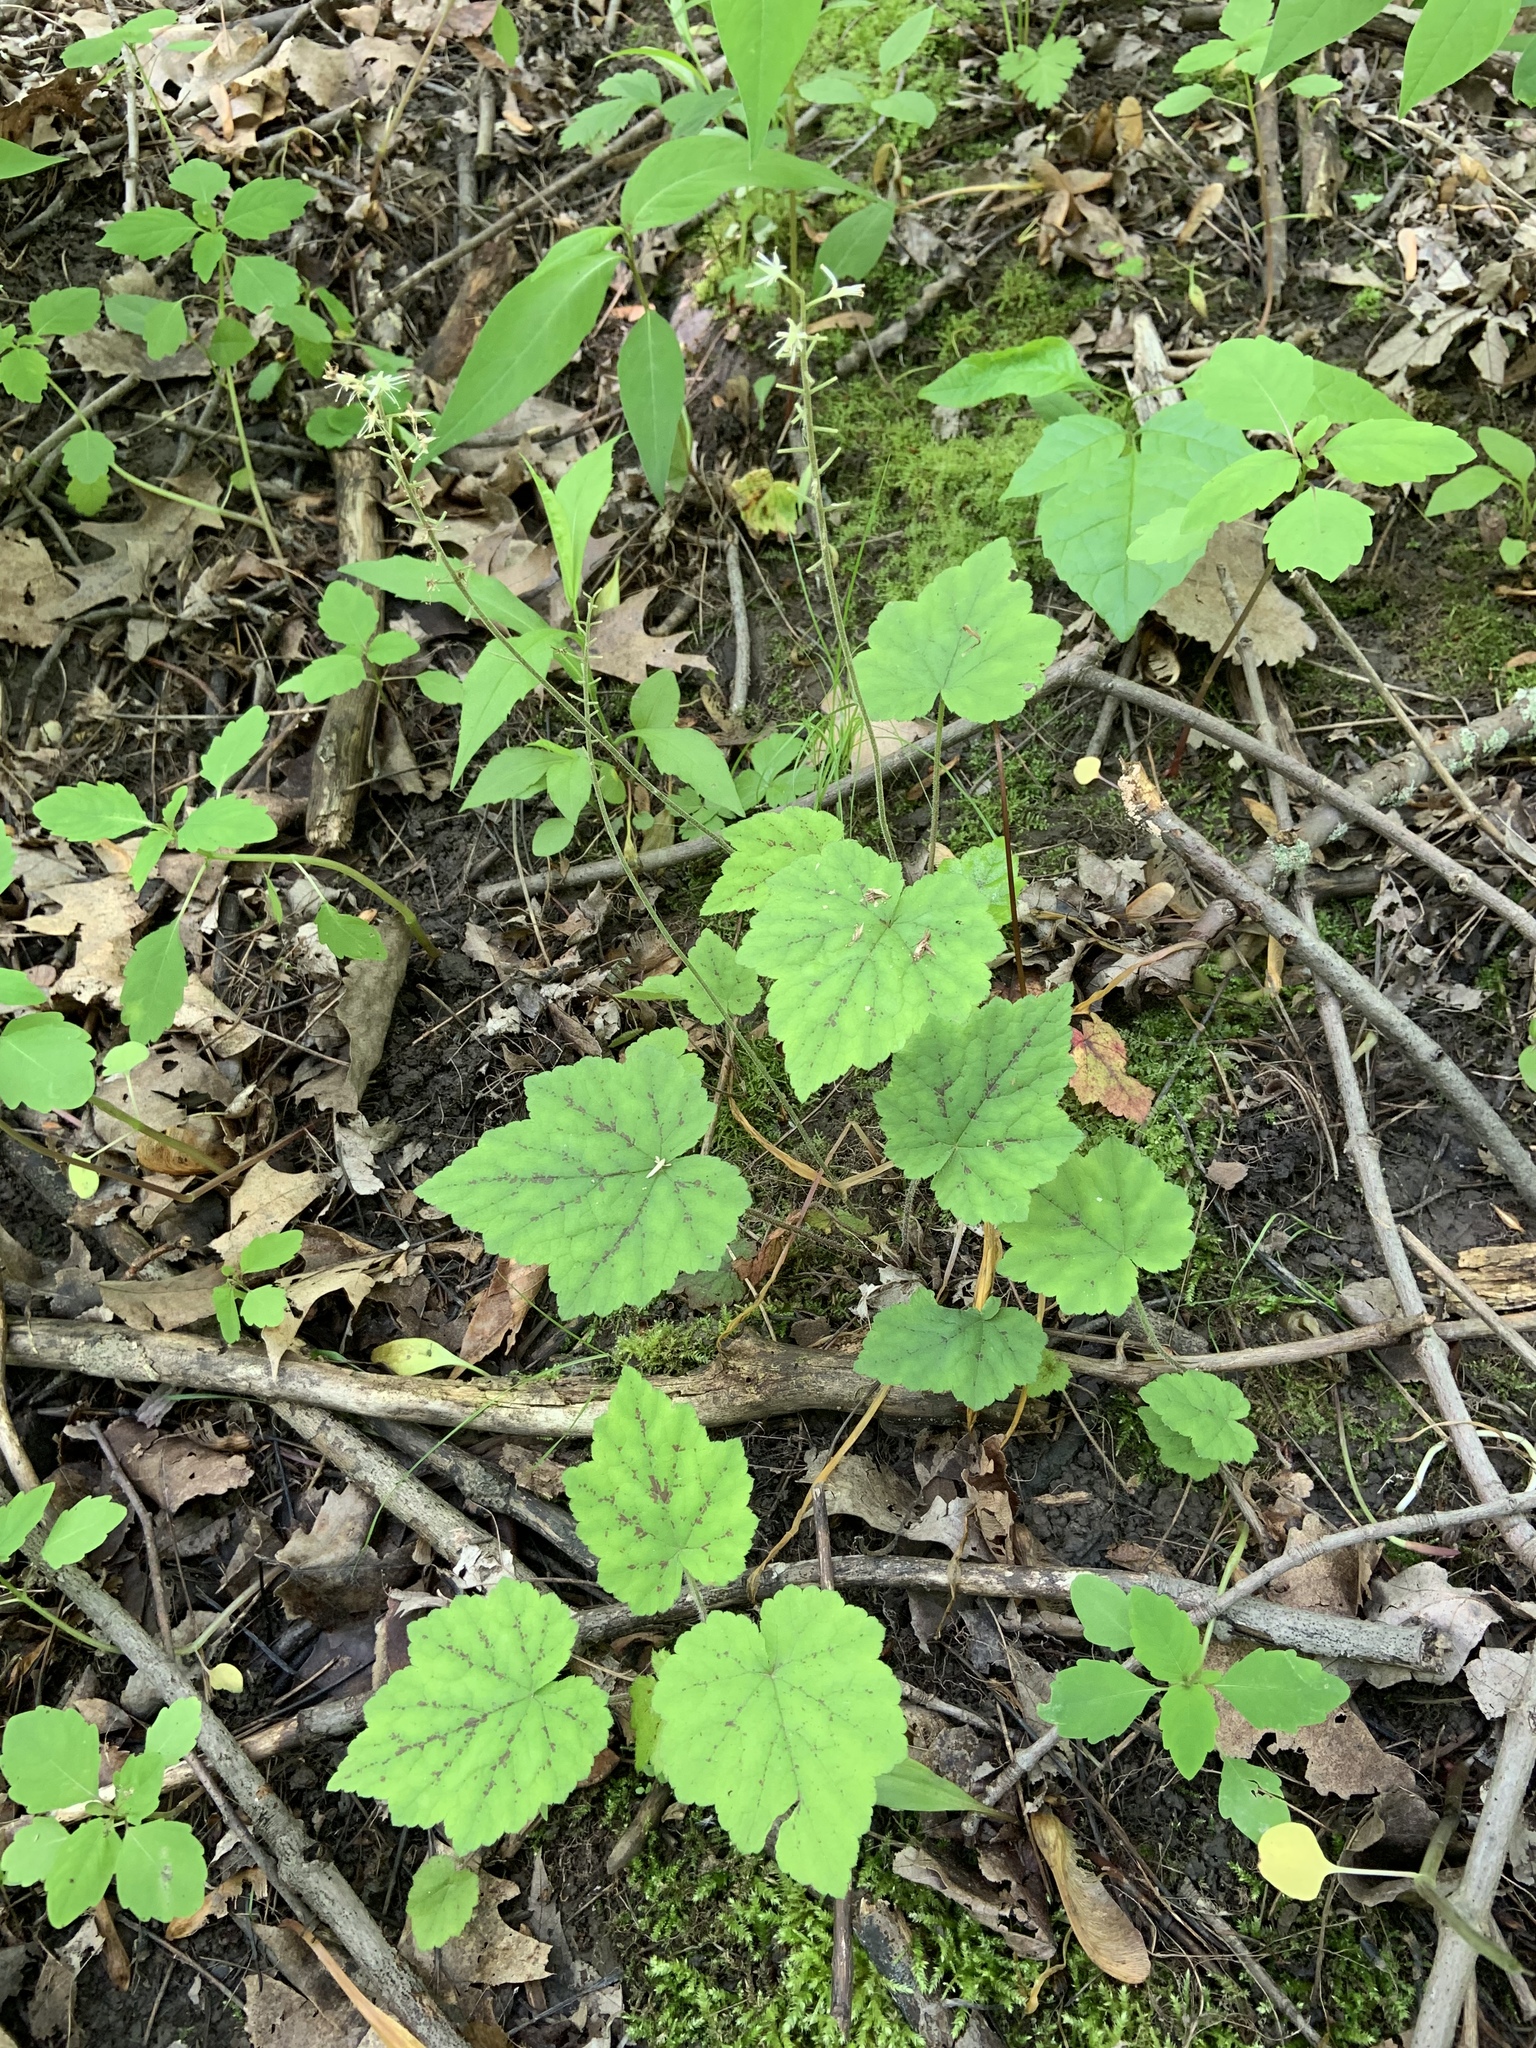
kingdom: Plantae
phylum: Tracheophyta
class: Magnoliopsida
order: Saxifragales
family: Saxifragaceae
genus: Tiarella
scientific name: Tiarella stolonifera
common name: Stoloniferous foamflower
